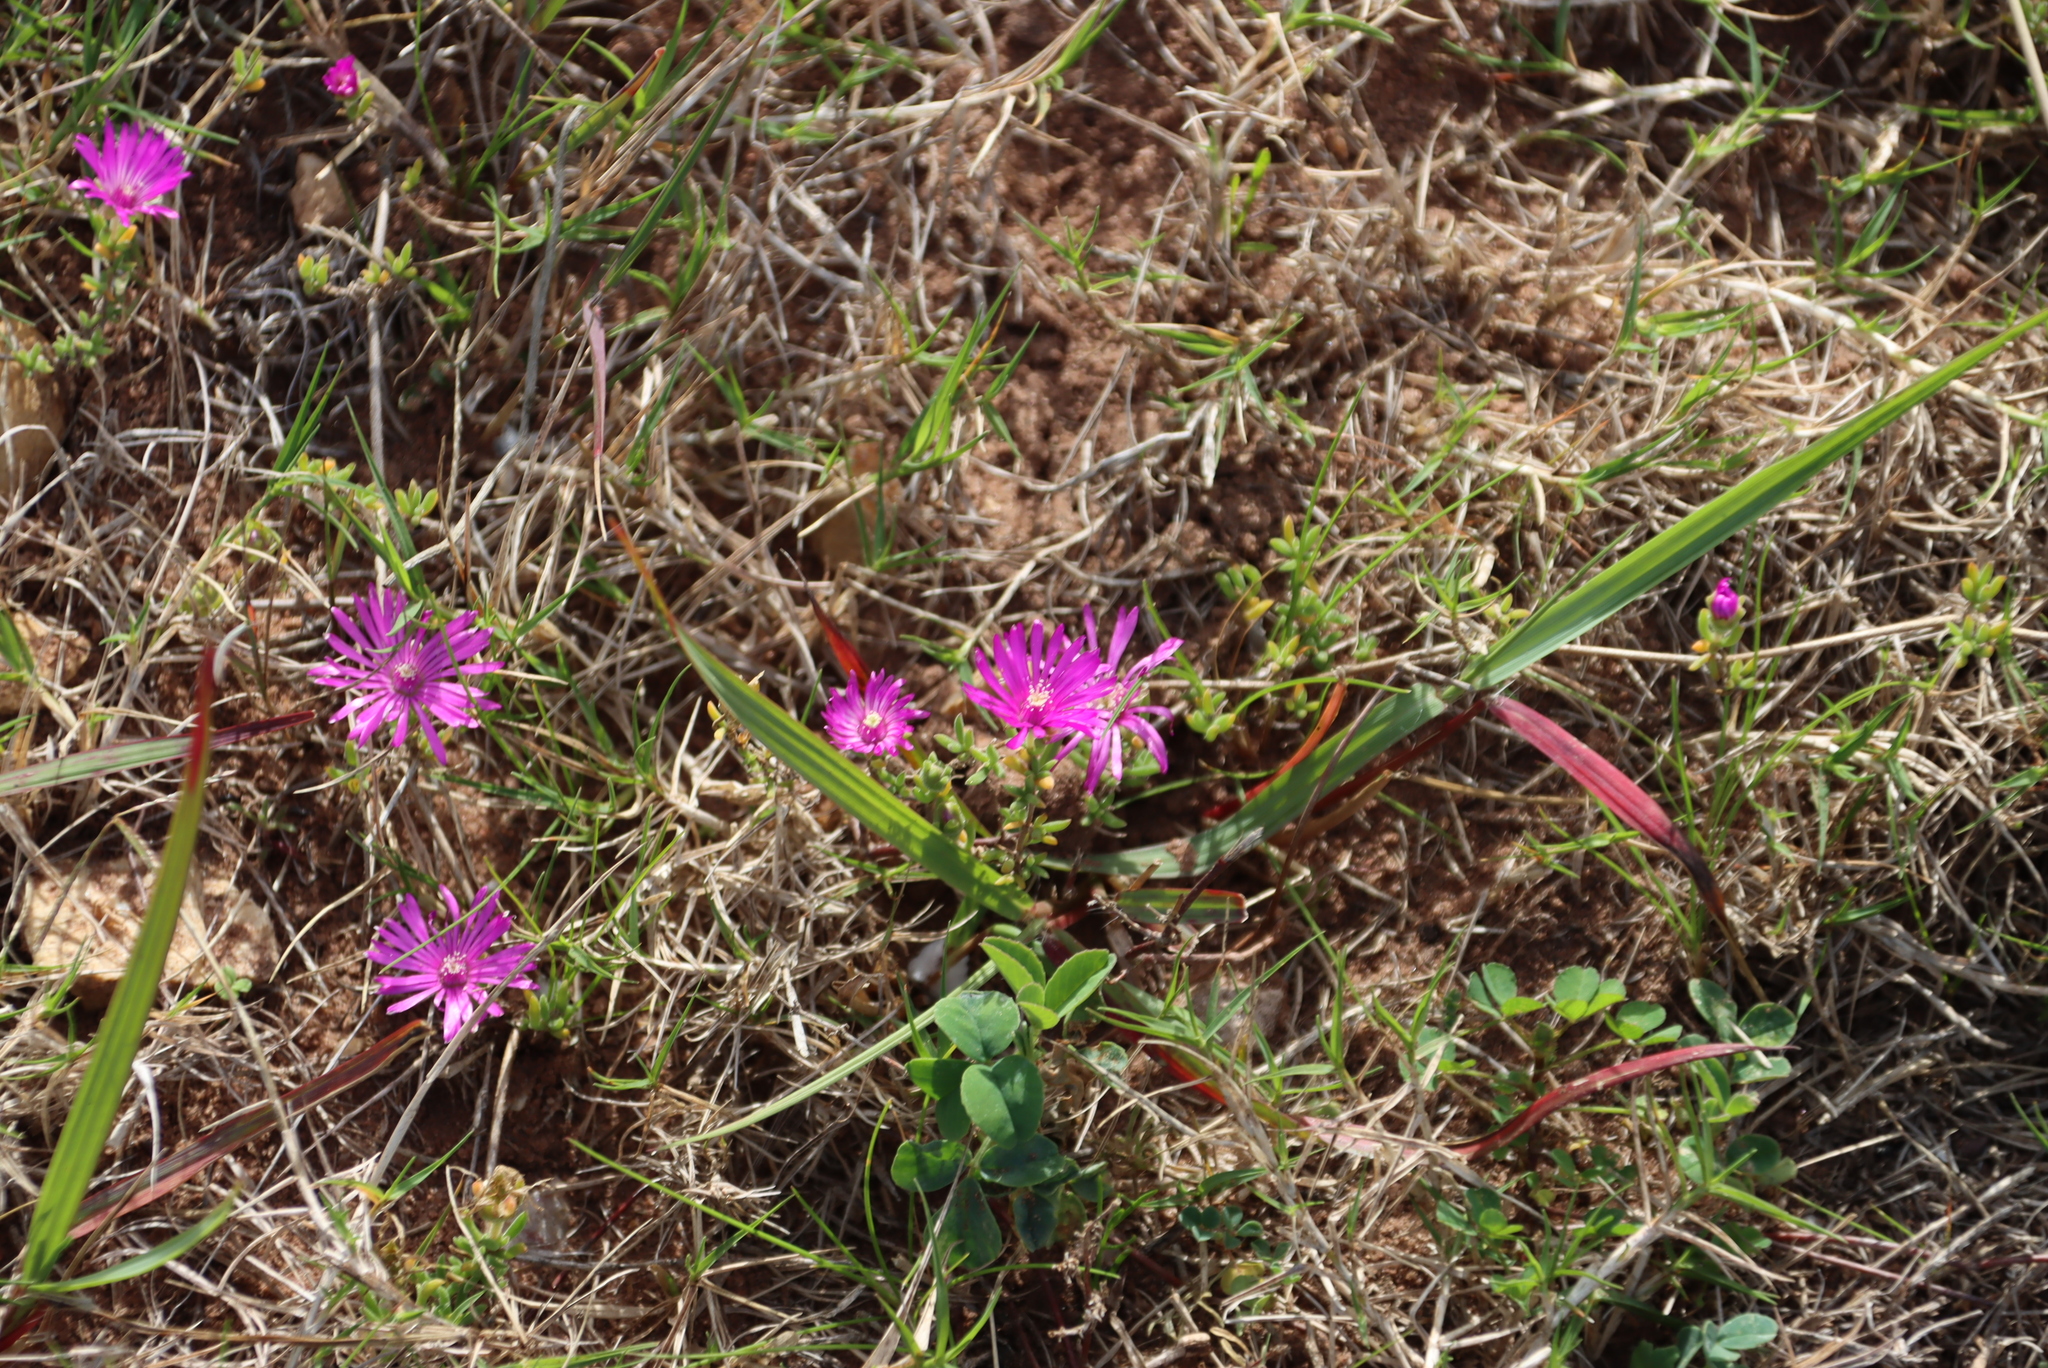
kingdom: Plantae
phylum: Tracheophyta
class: Magnoliopsida
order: Caryophyllales
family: Aizoaceae
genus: Drosanthemum
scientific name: Drosanthemum calcareum
